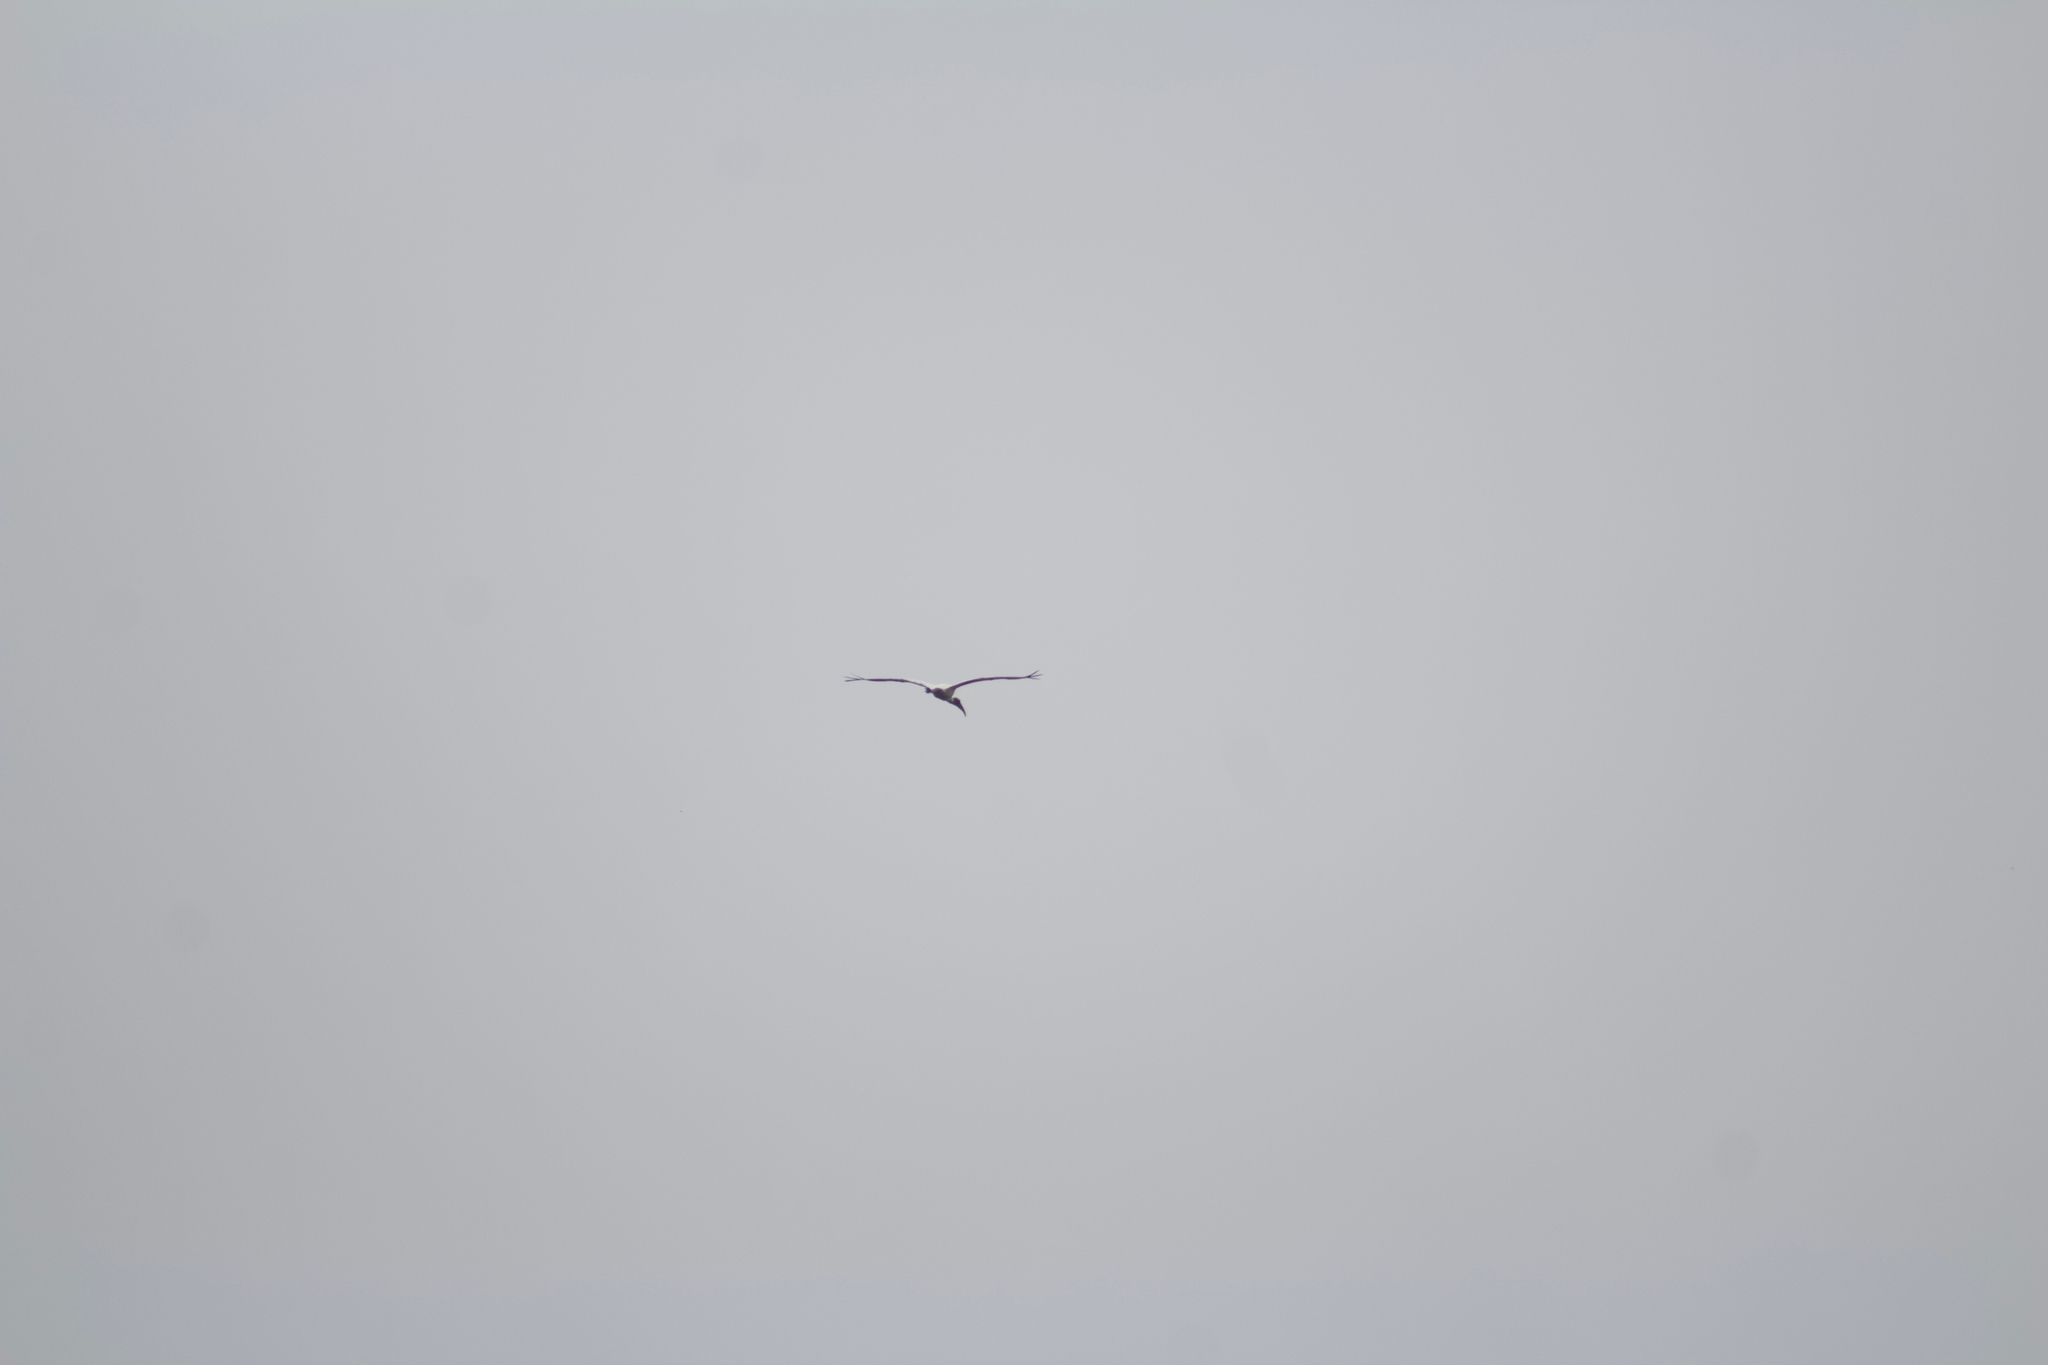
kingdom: Animalia
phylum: Chordata
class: Aves
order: Ciconiiformes
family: Ciconiidae
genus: Mycteria
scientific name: Mycteria americana
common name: Wood stork
